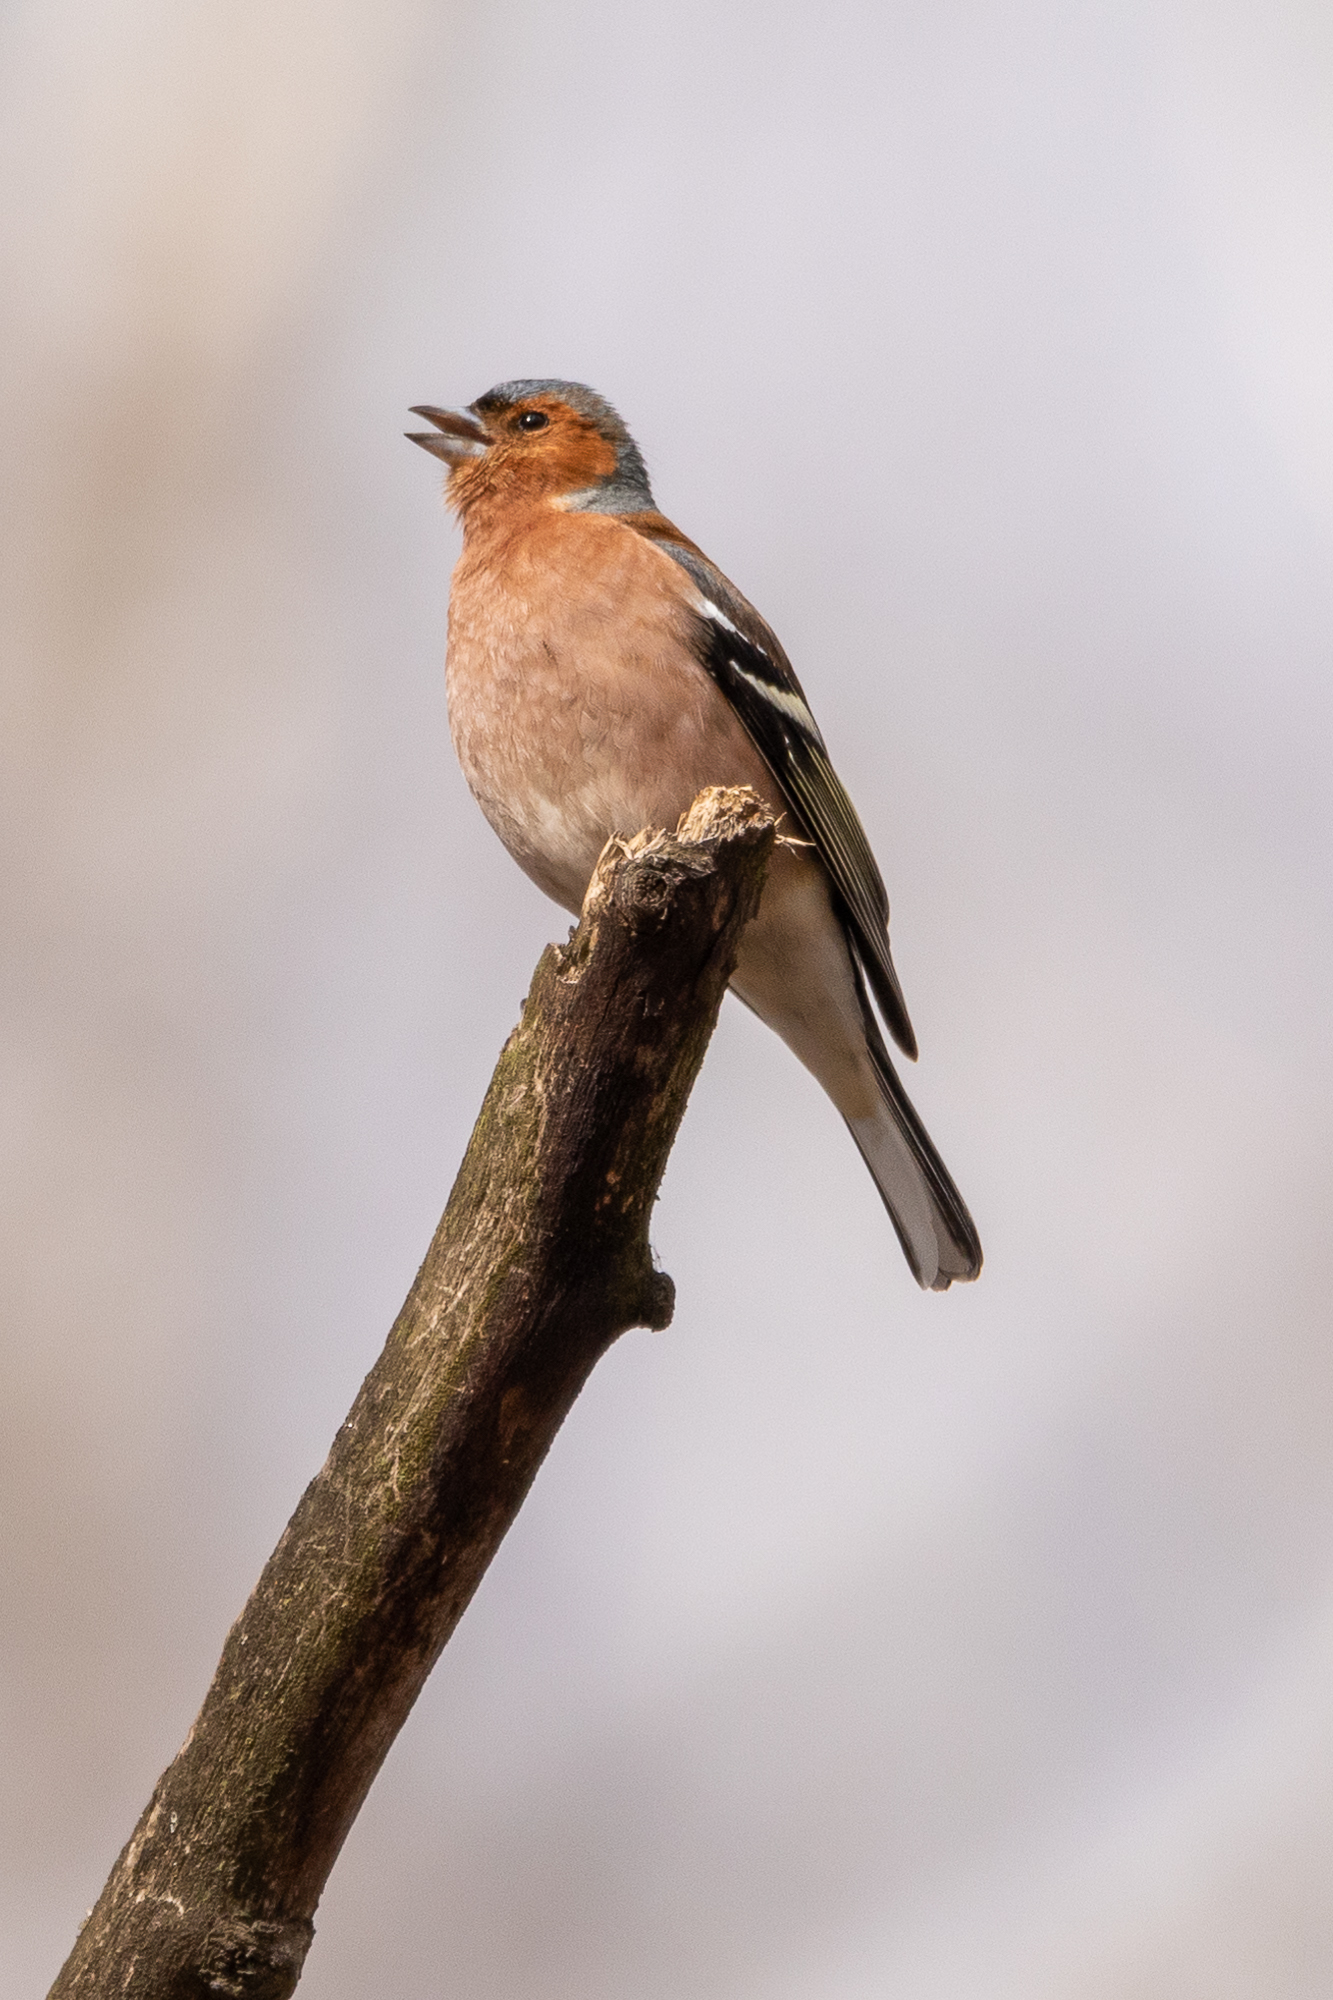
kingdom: Animalia
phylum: Chordata
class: Aves
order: Passeriformes
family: Fringillidae
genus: Fringilla
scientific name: Fringilla coelebs
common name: Common chaffinch
